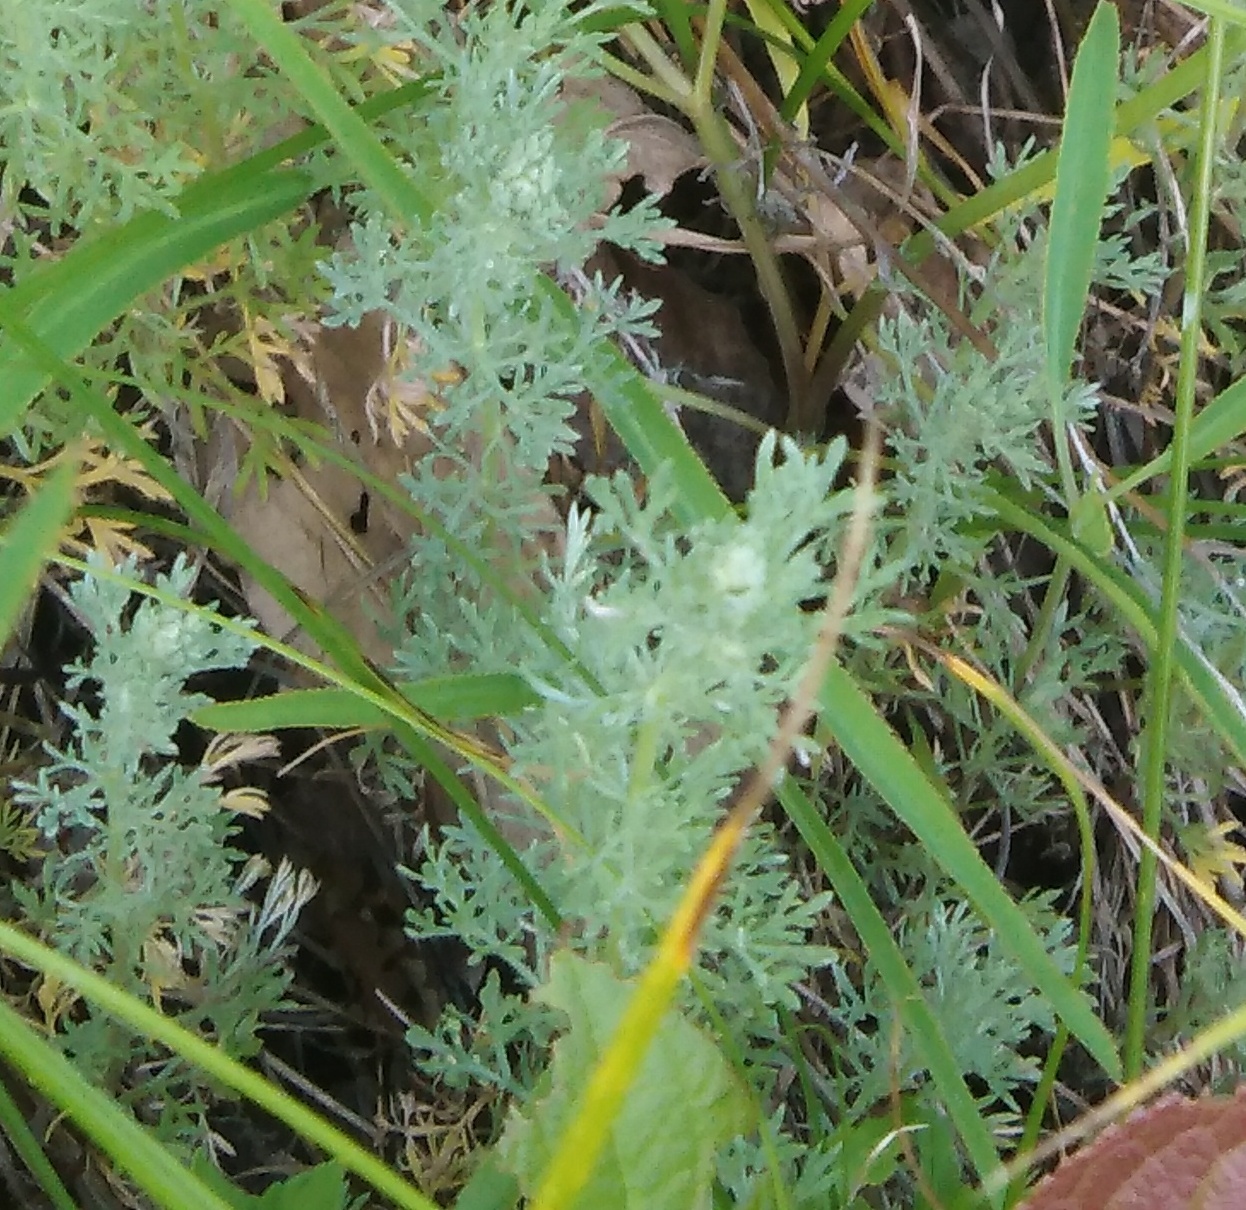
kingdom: Plantae
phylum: Tracheophyta
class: Magnoliopsida
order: Asterales
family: Asteraceae
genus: Artemisia
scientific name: Artemisia austriaca
